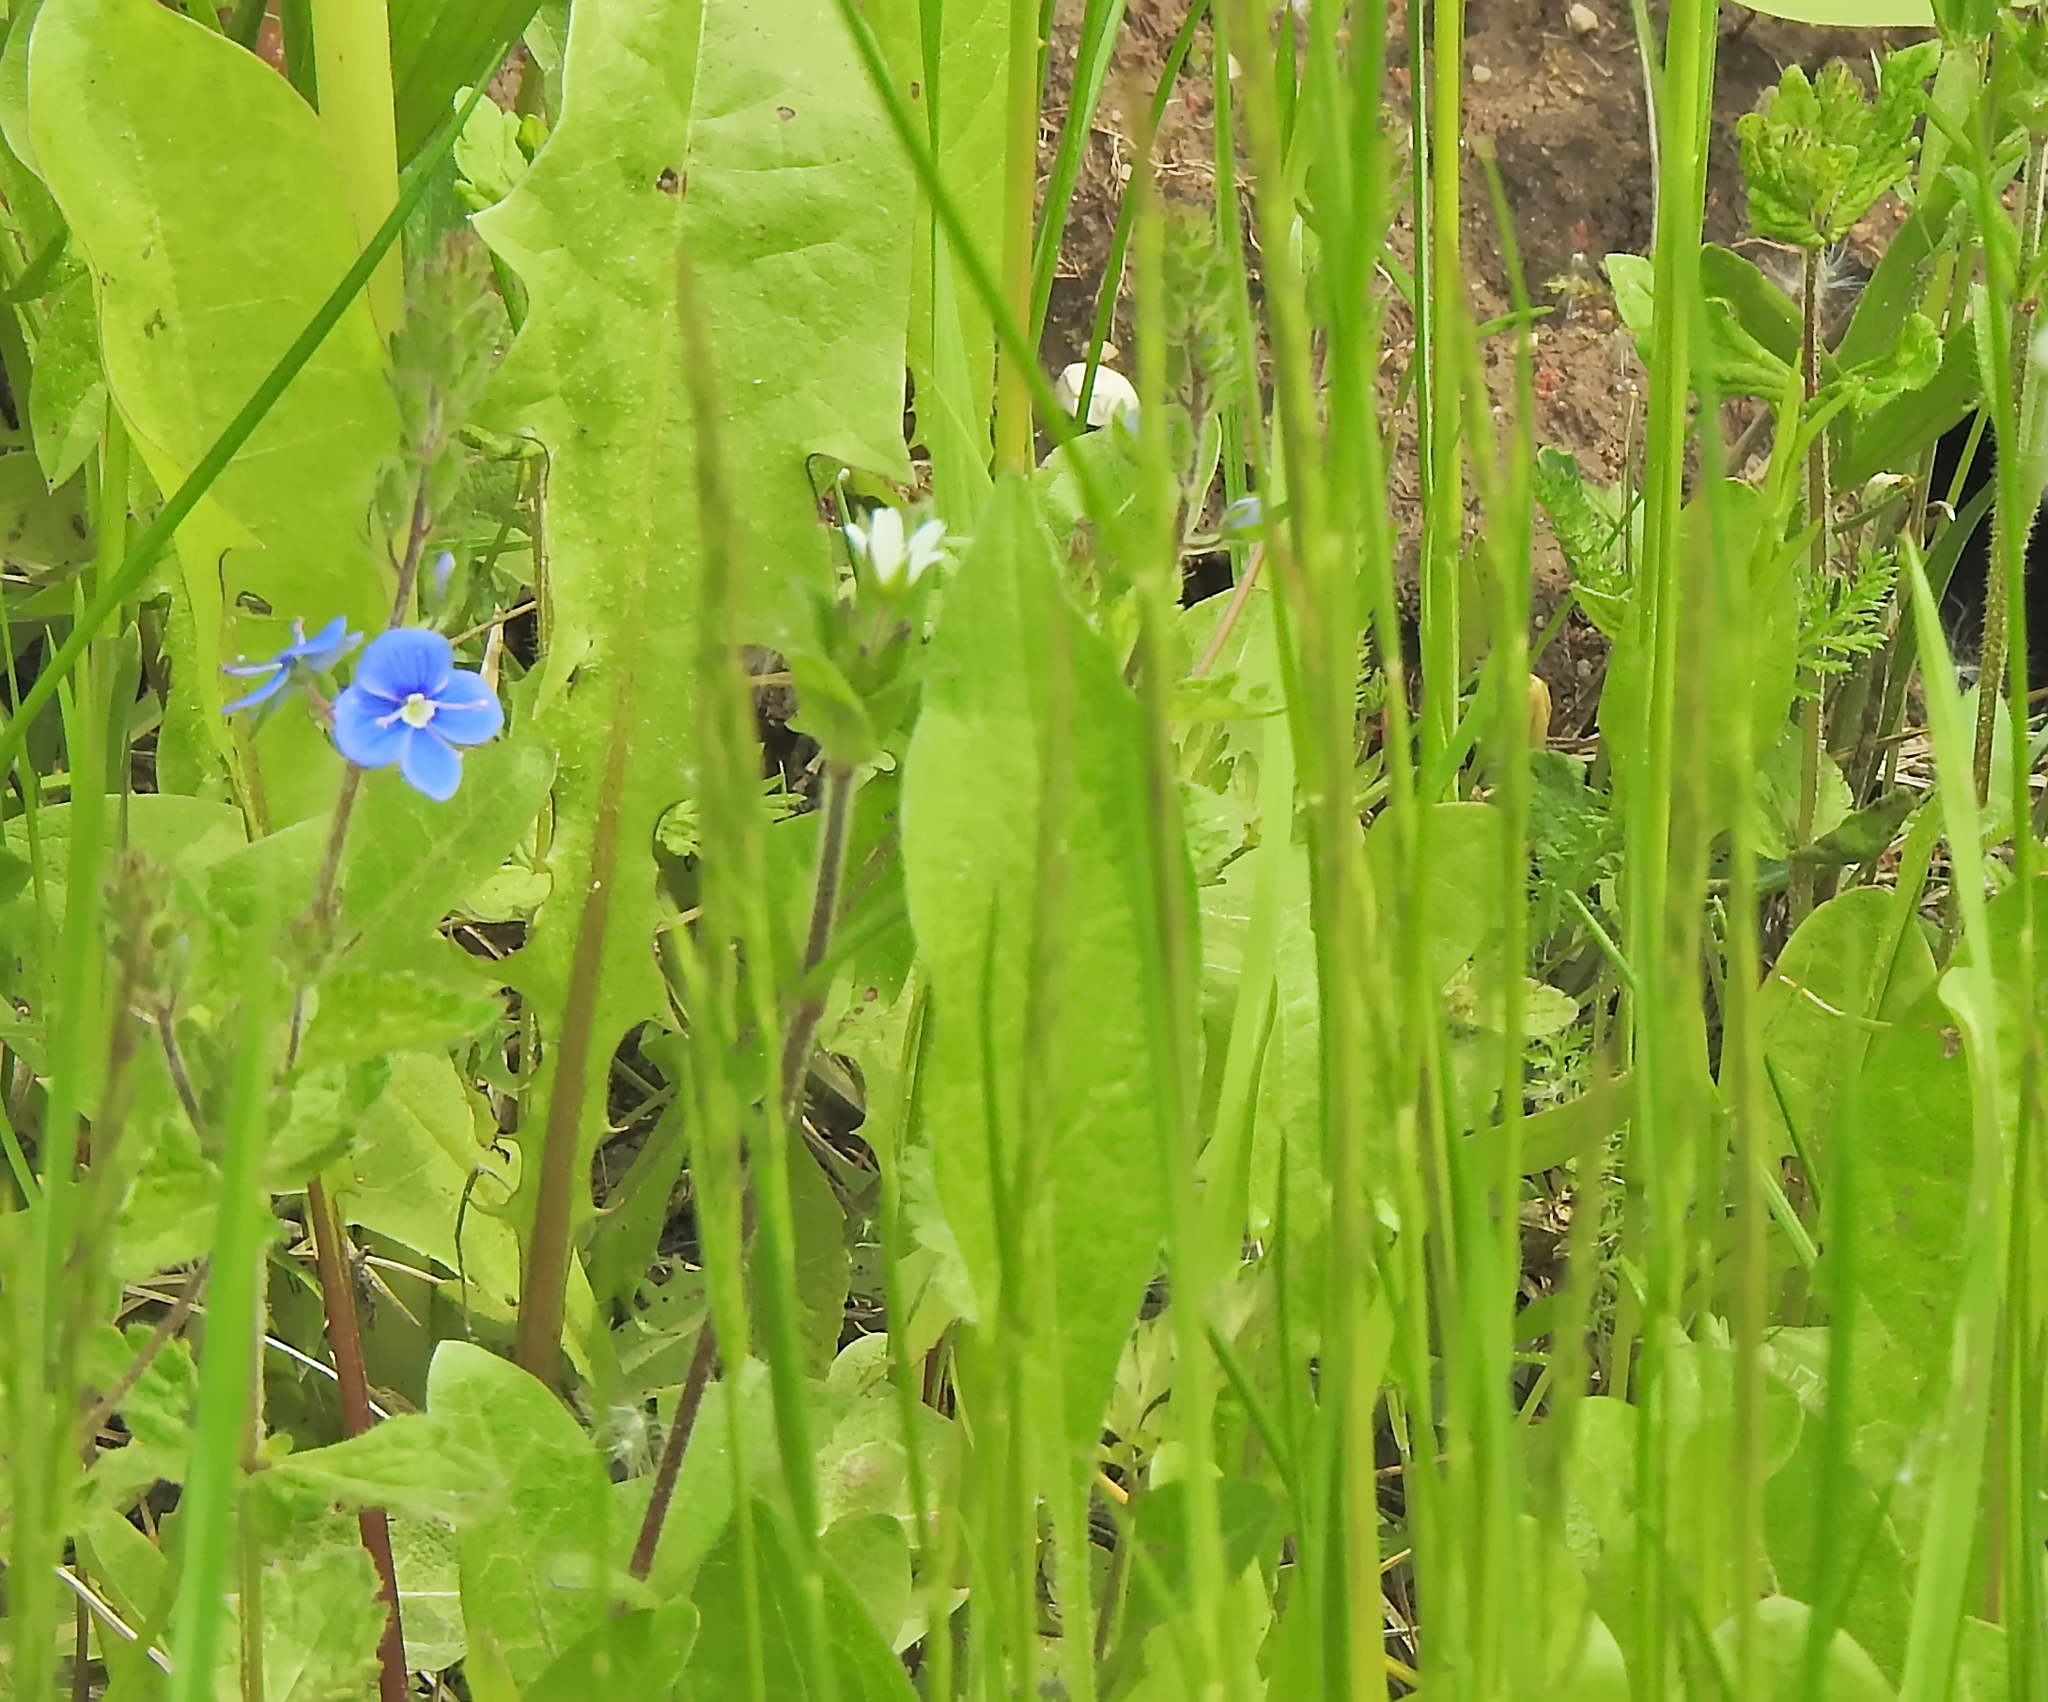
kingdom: Plantae
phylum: Tracheophyta
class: Magnoliopsida
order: Lamiales
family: Plantaginaceae
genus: Veronica
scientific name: Veronica chamaedrys
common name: Germander speedwell
